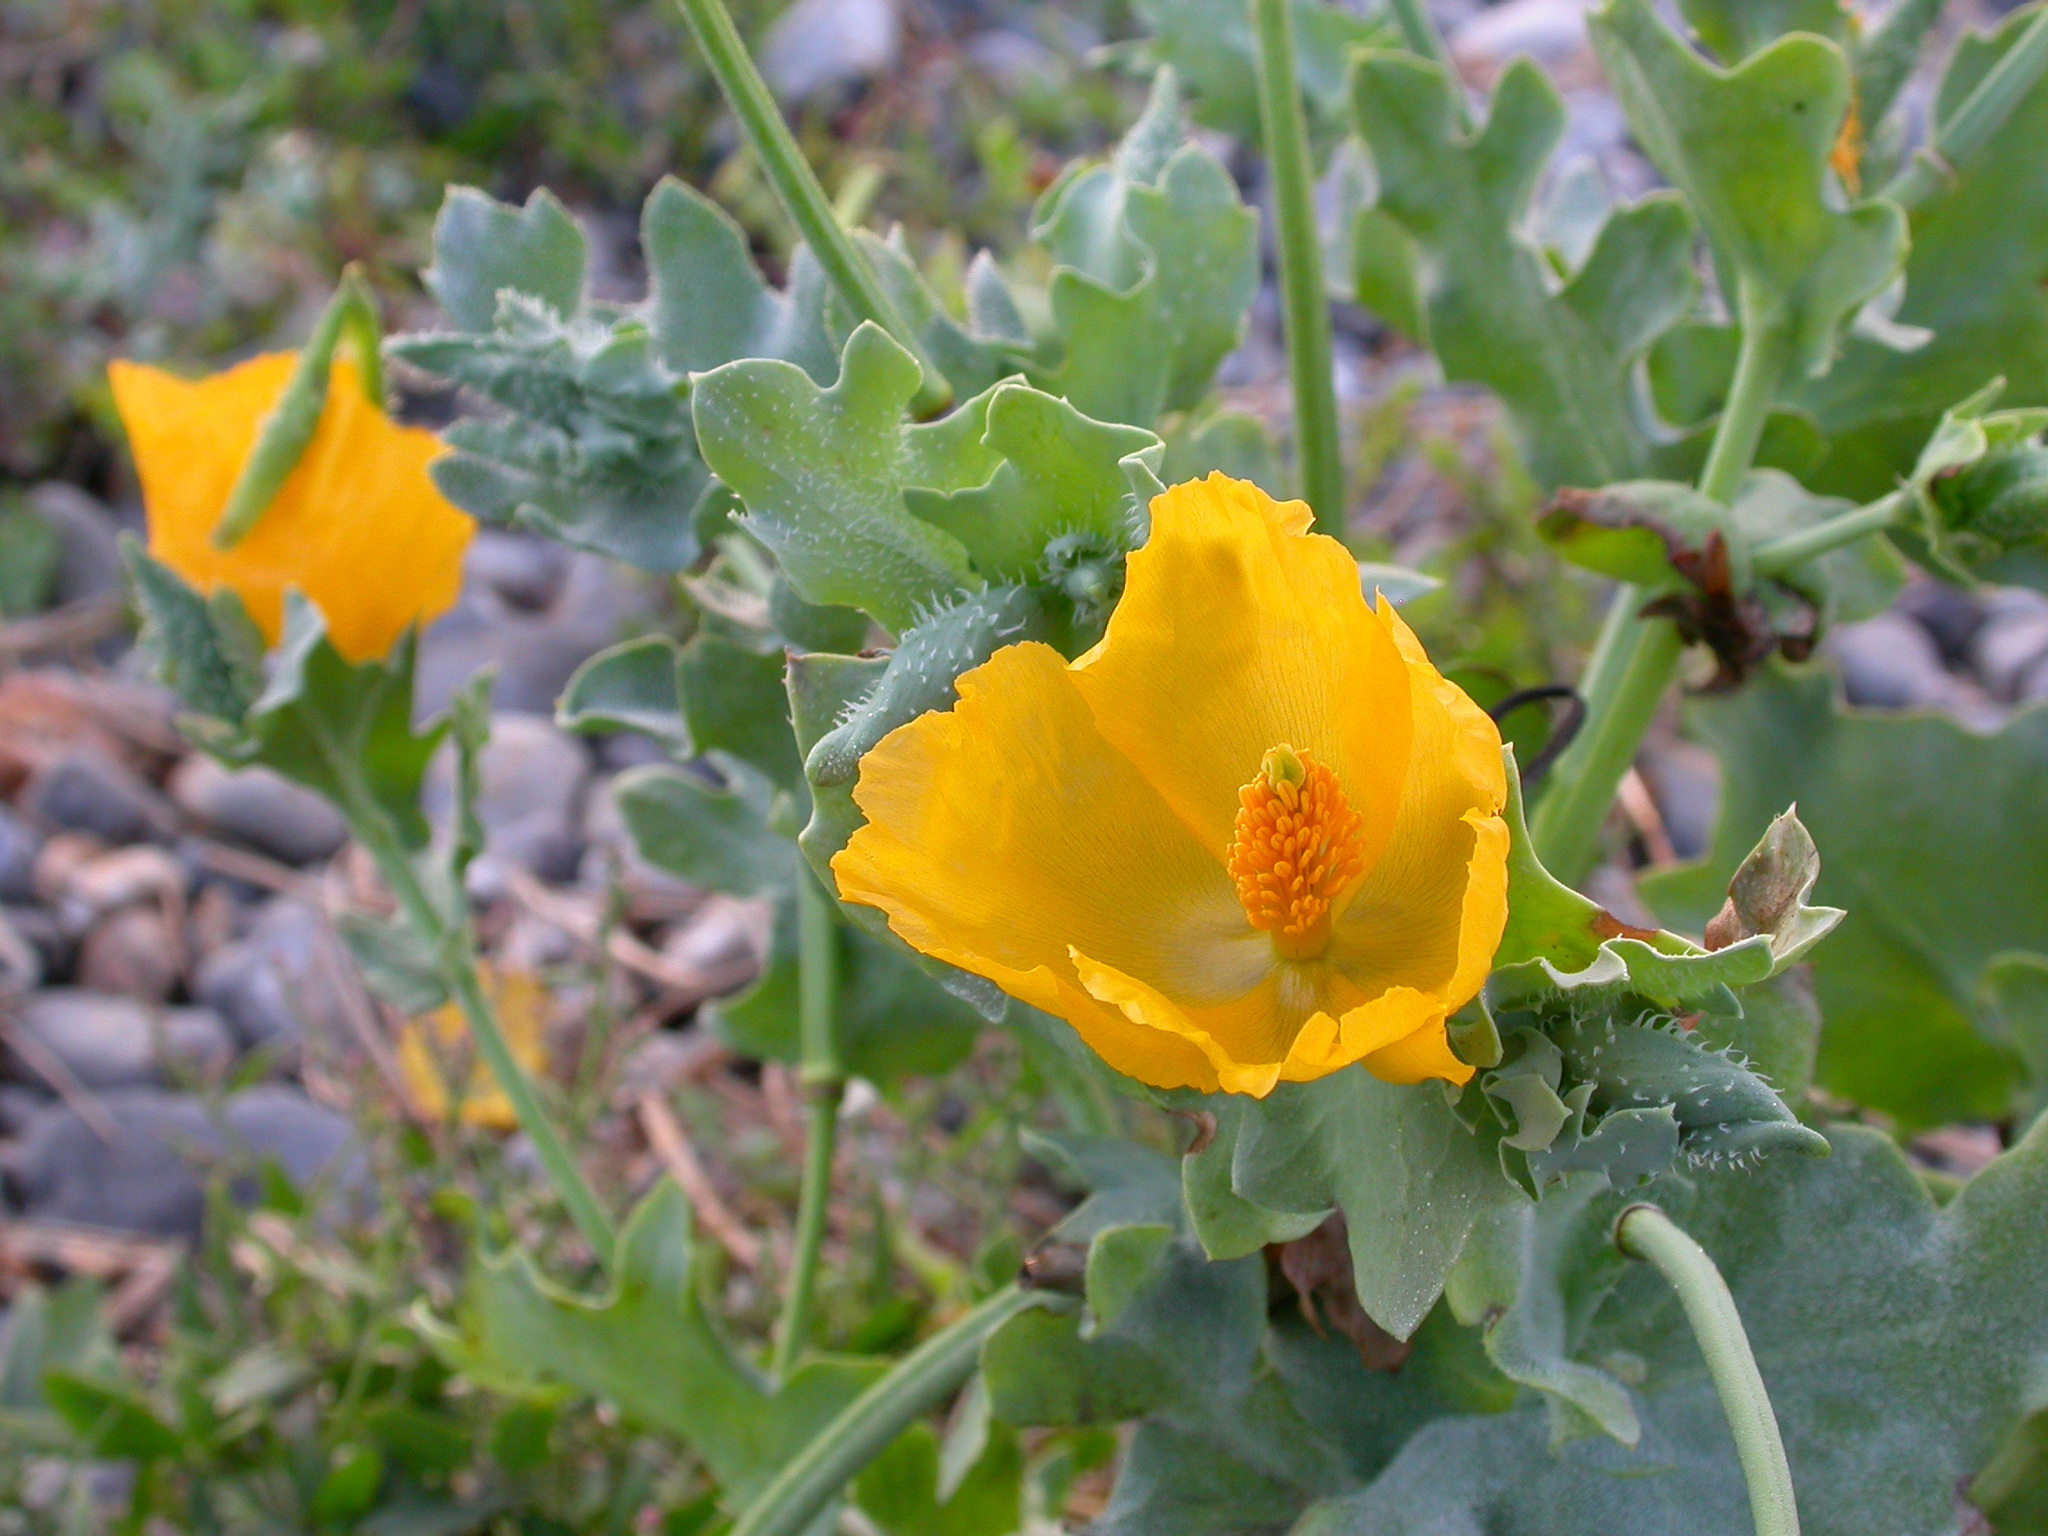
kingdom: Plantae
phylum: Tracheophyta
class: Magnoliopsida
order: Ranunculales
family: Papaveraceae
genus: Glaucium
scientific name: Glaucium flavum
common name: Yellow horned-poppy
